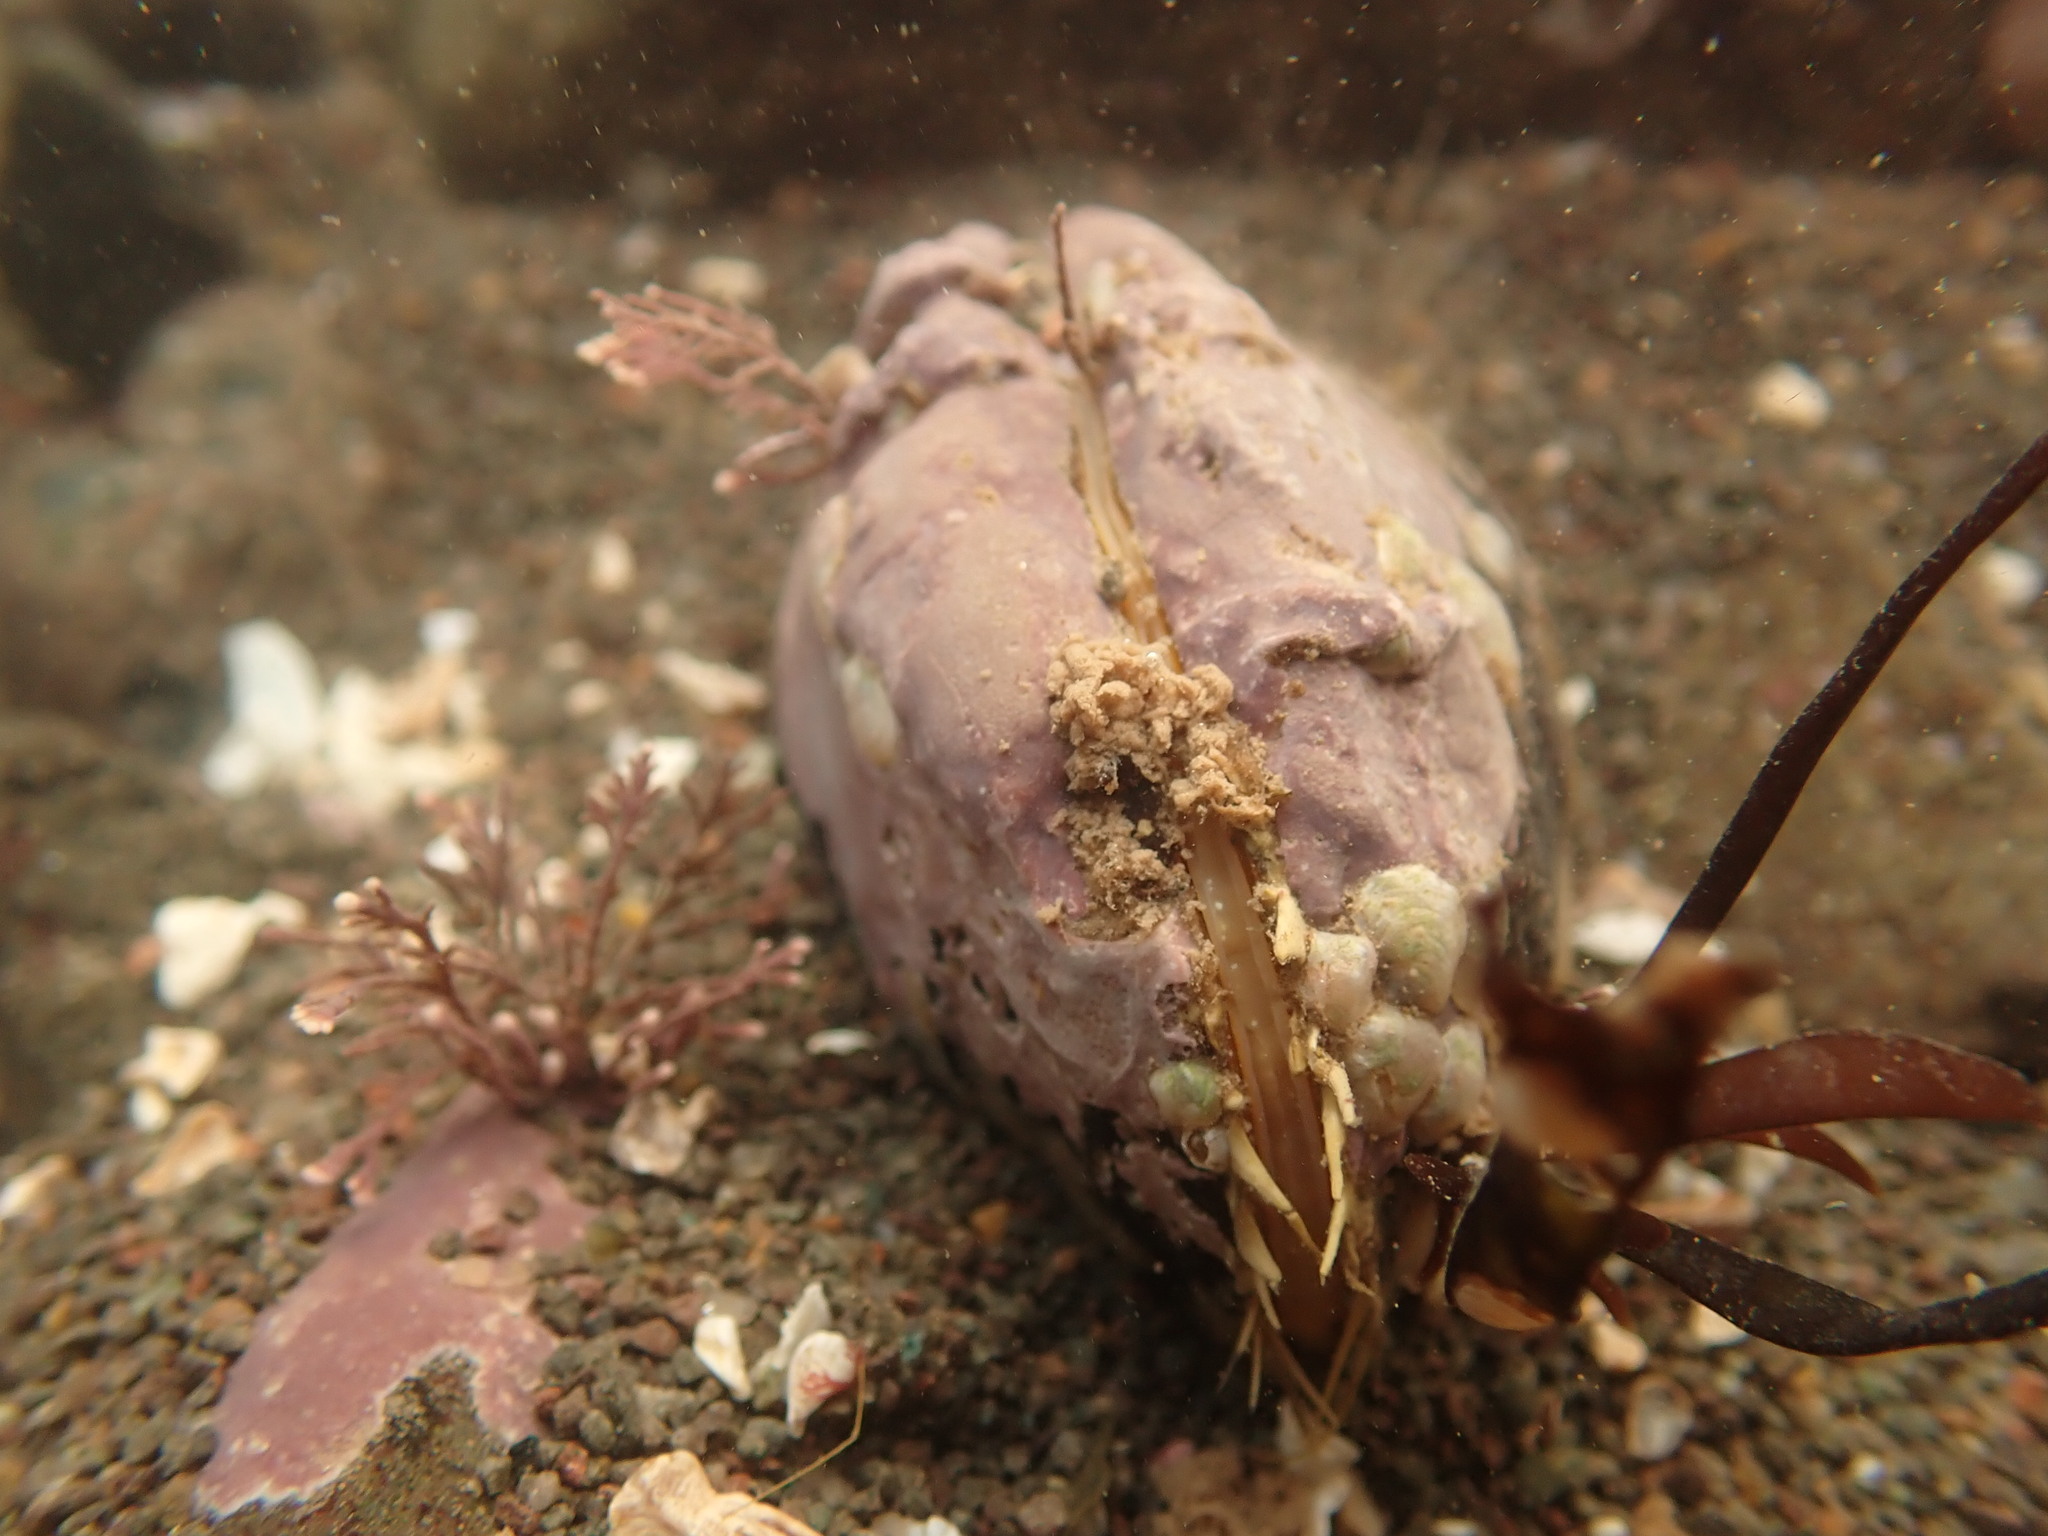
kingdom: Animalia
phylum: Mollusca
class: Bivalvia
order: Mytilida
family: Mytilidae
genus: Modiolus
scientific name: Modiolus modiolus
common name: Horse-mussel
